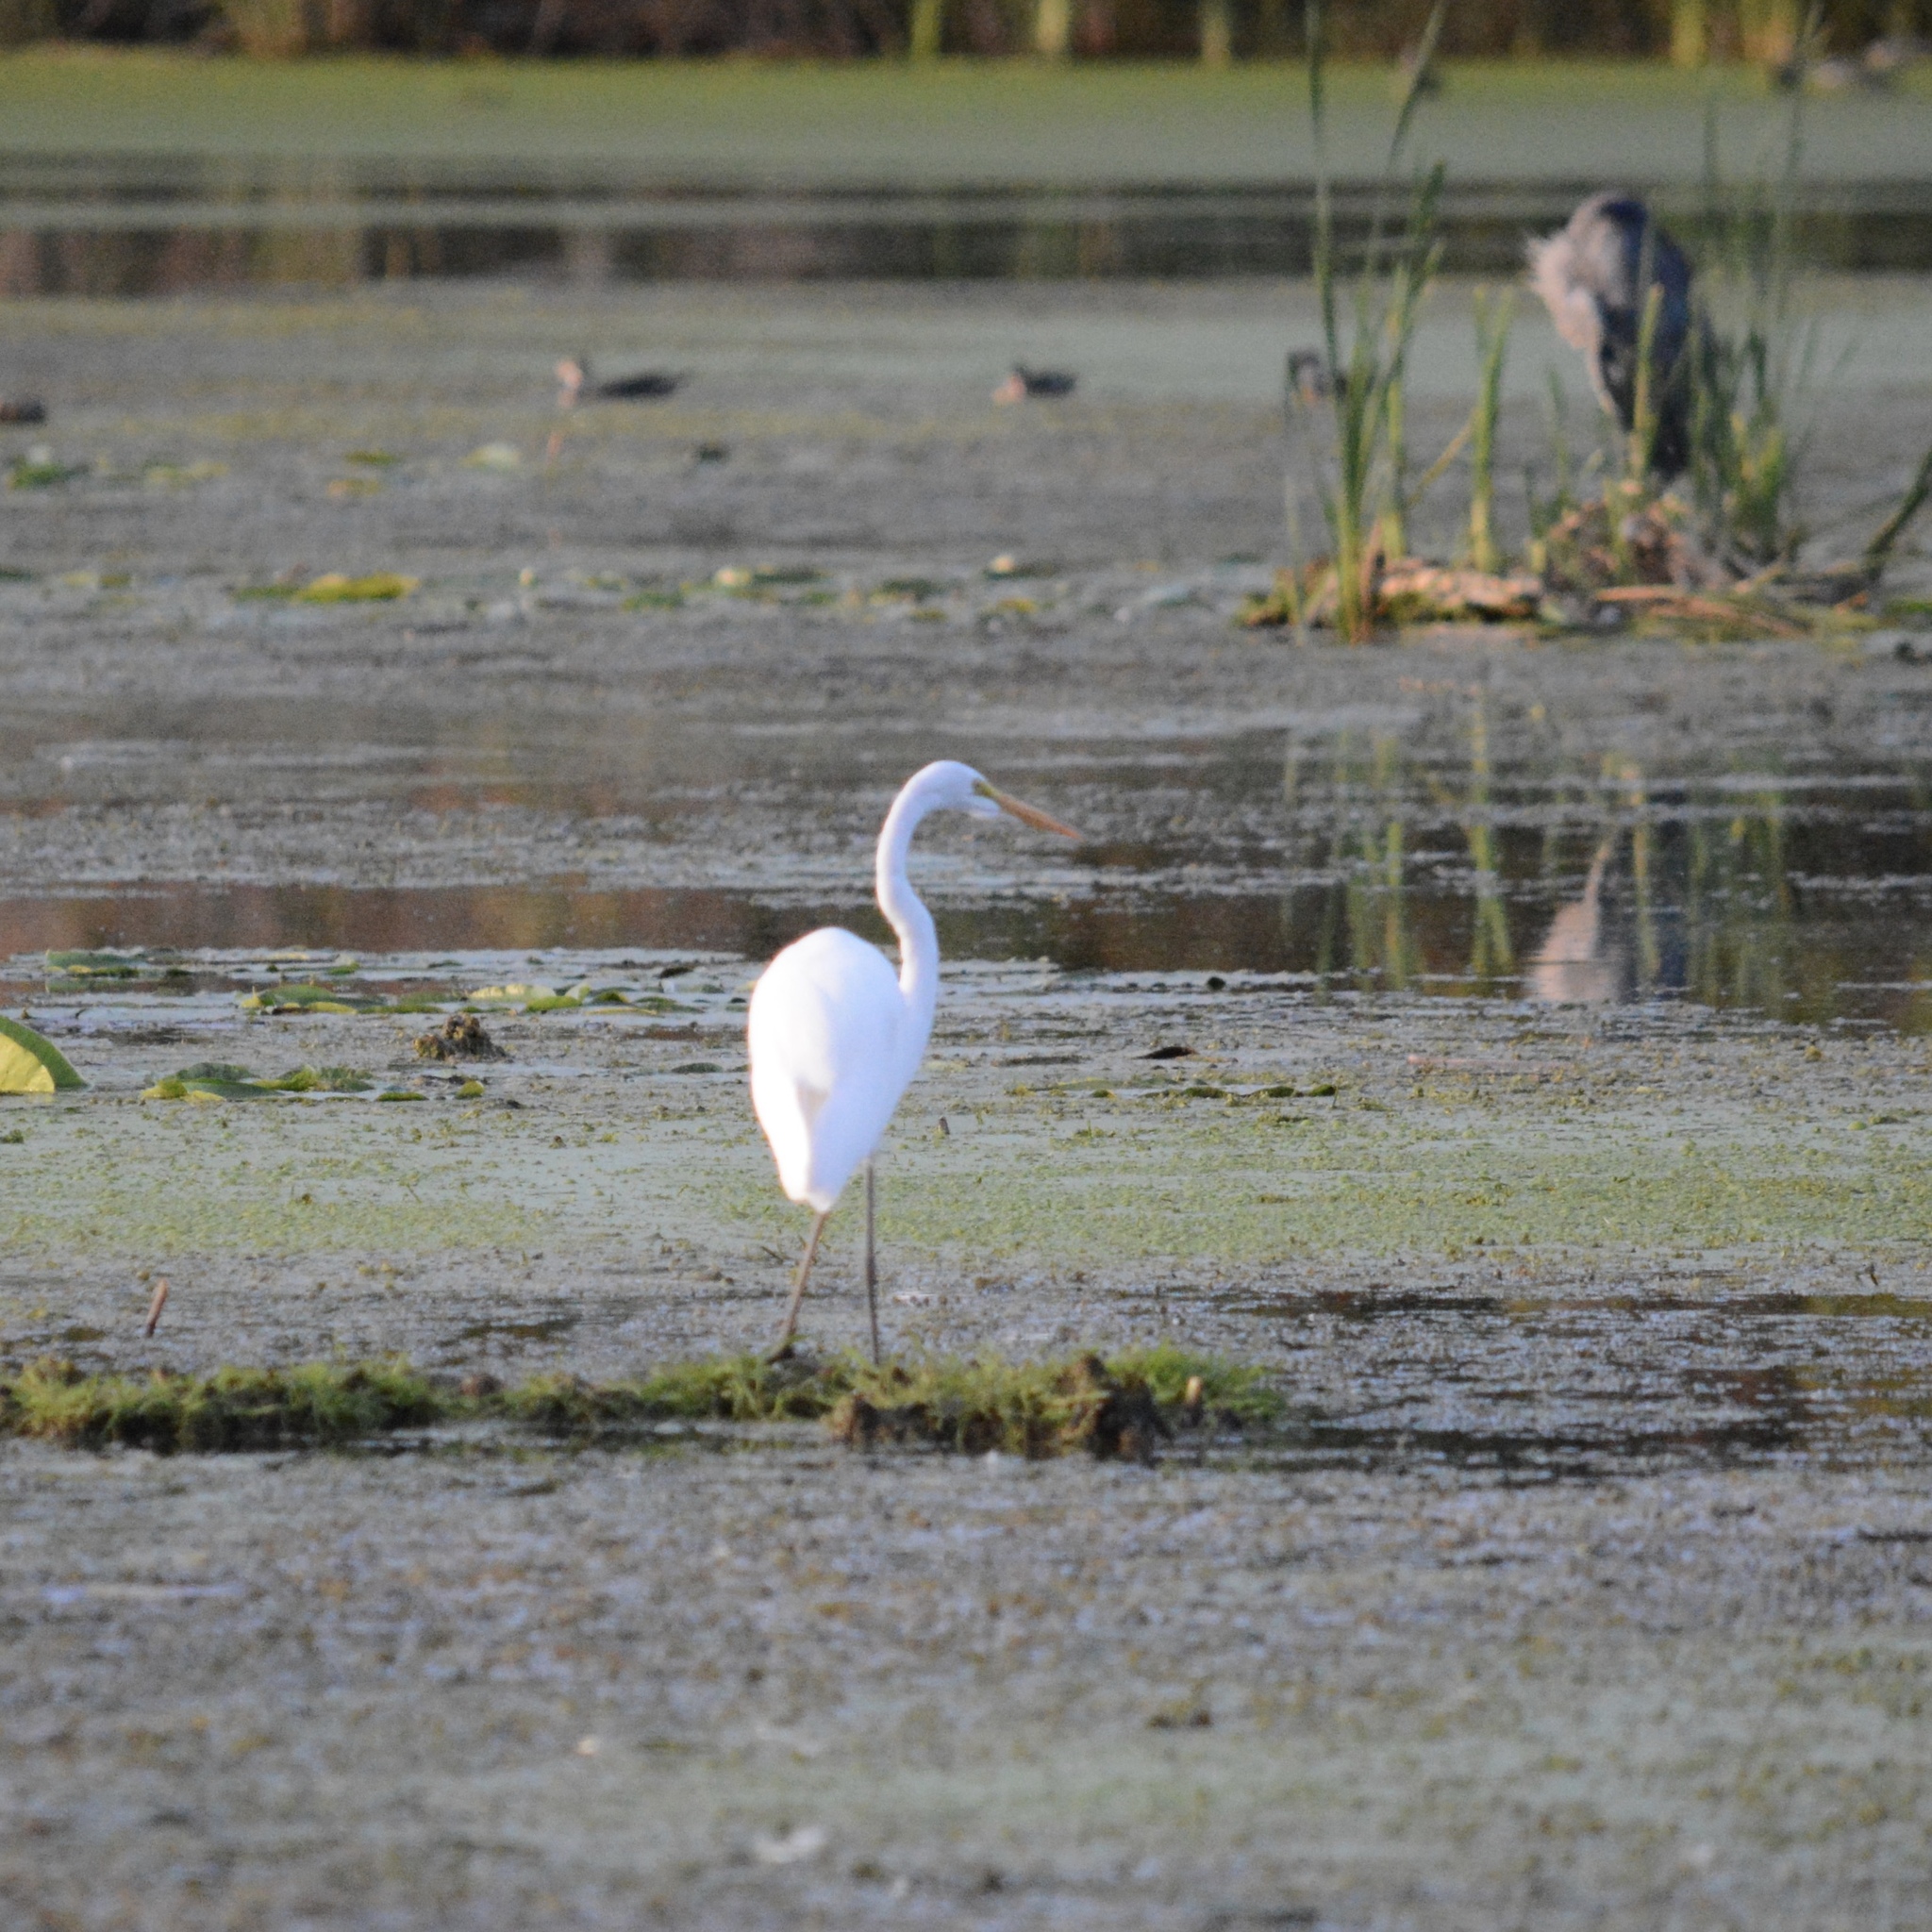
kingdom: Animalia
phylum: Chordata
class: Aves
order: Pelecaniformes
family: Ardeidae
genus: Ardea
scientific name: Ardea alba
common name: Great egret
